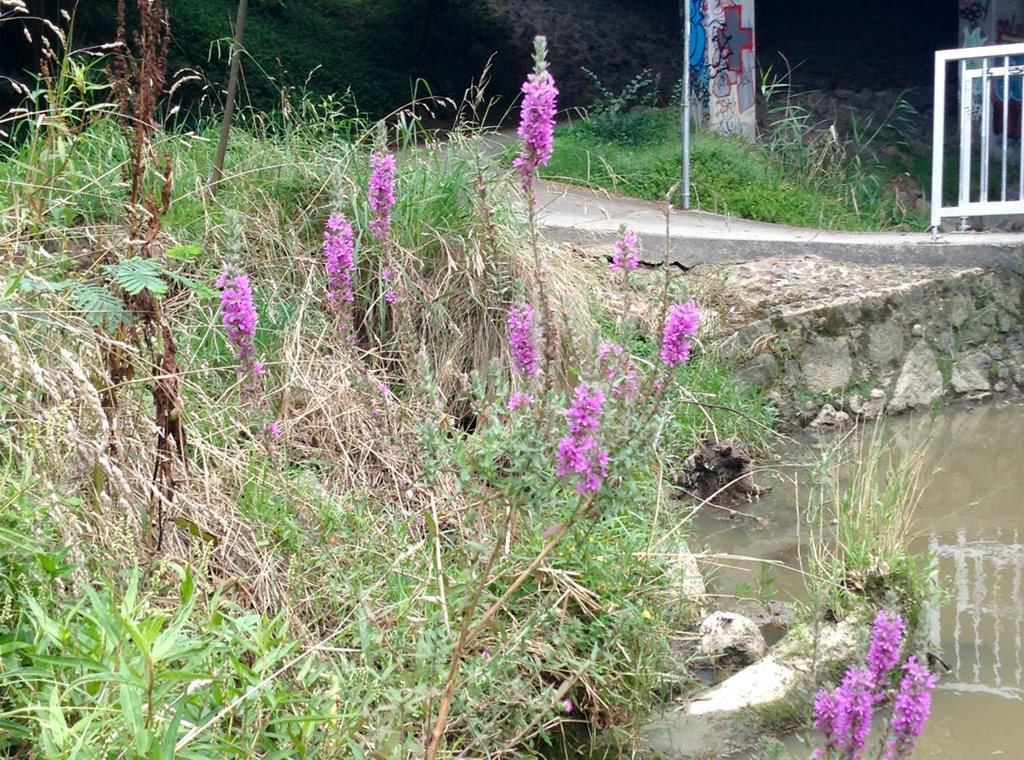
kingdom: Plantae
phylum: Tracheophyta
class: Magnoliopsida
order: Myrtales
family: Lythraceae
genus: Lythrum
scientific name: Lythrum salicaria
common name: Purple loosestrife
